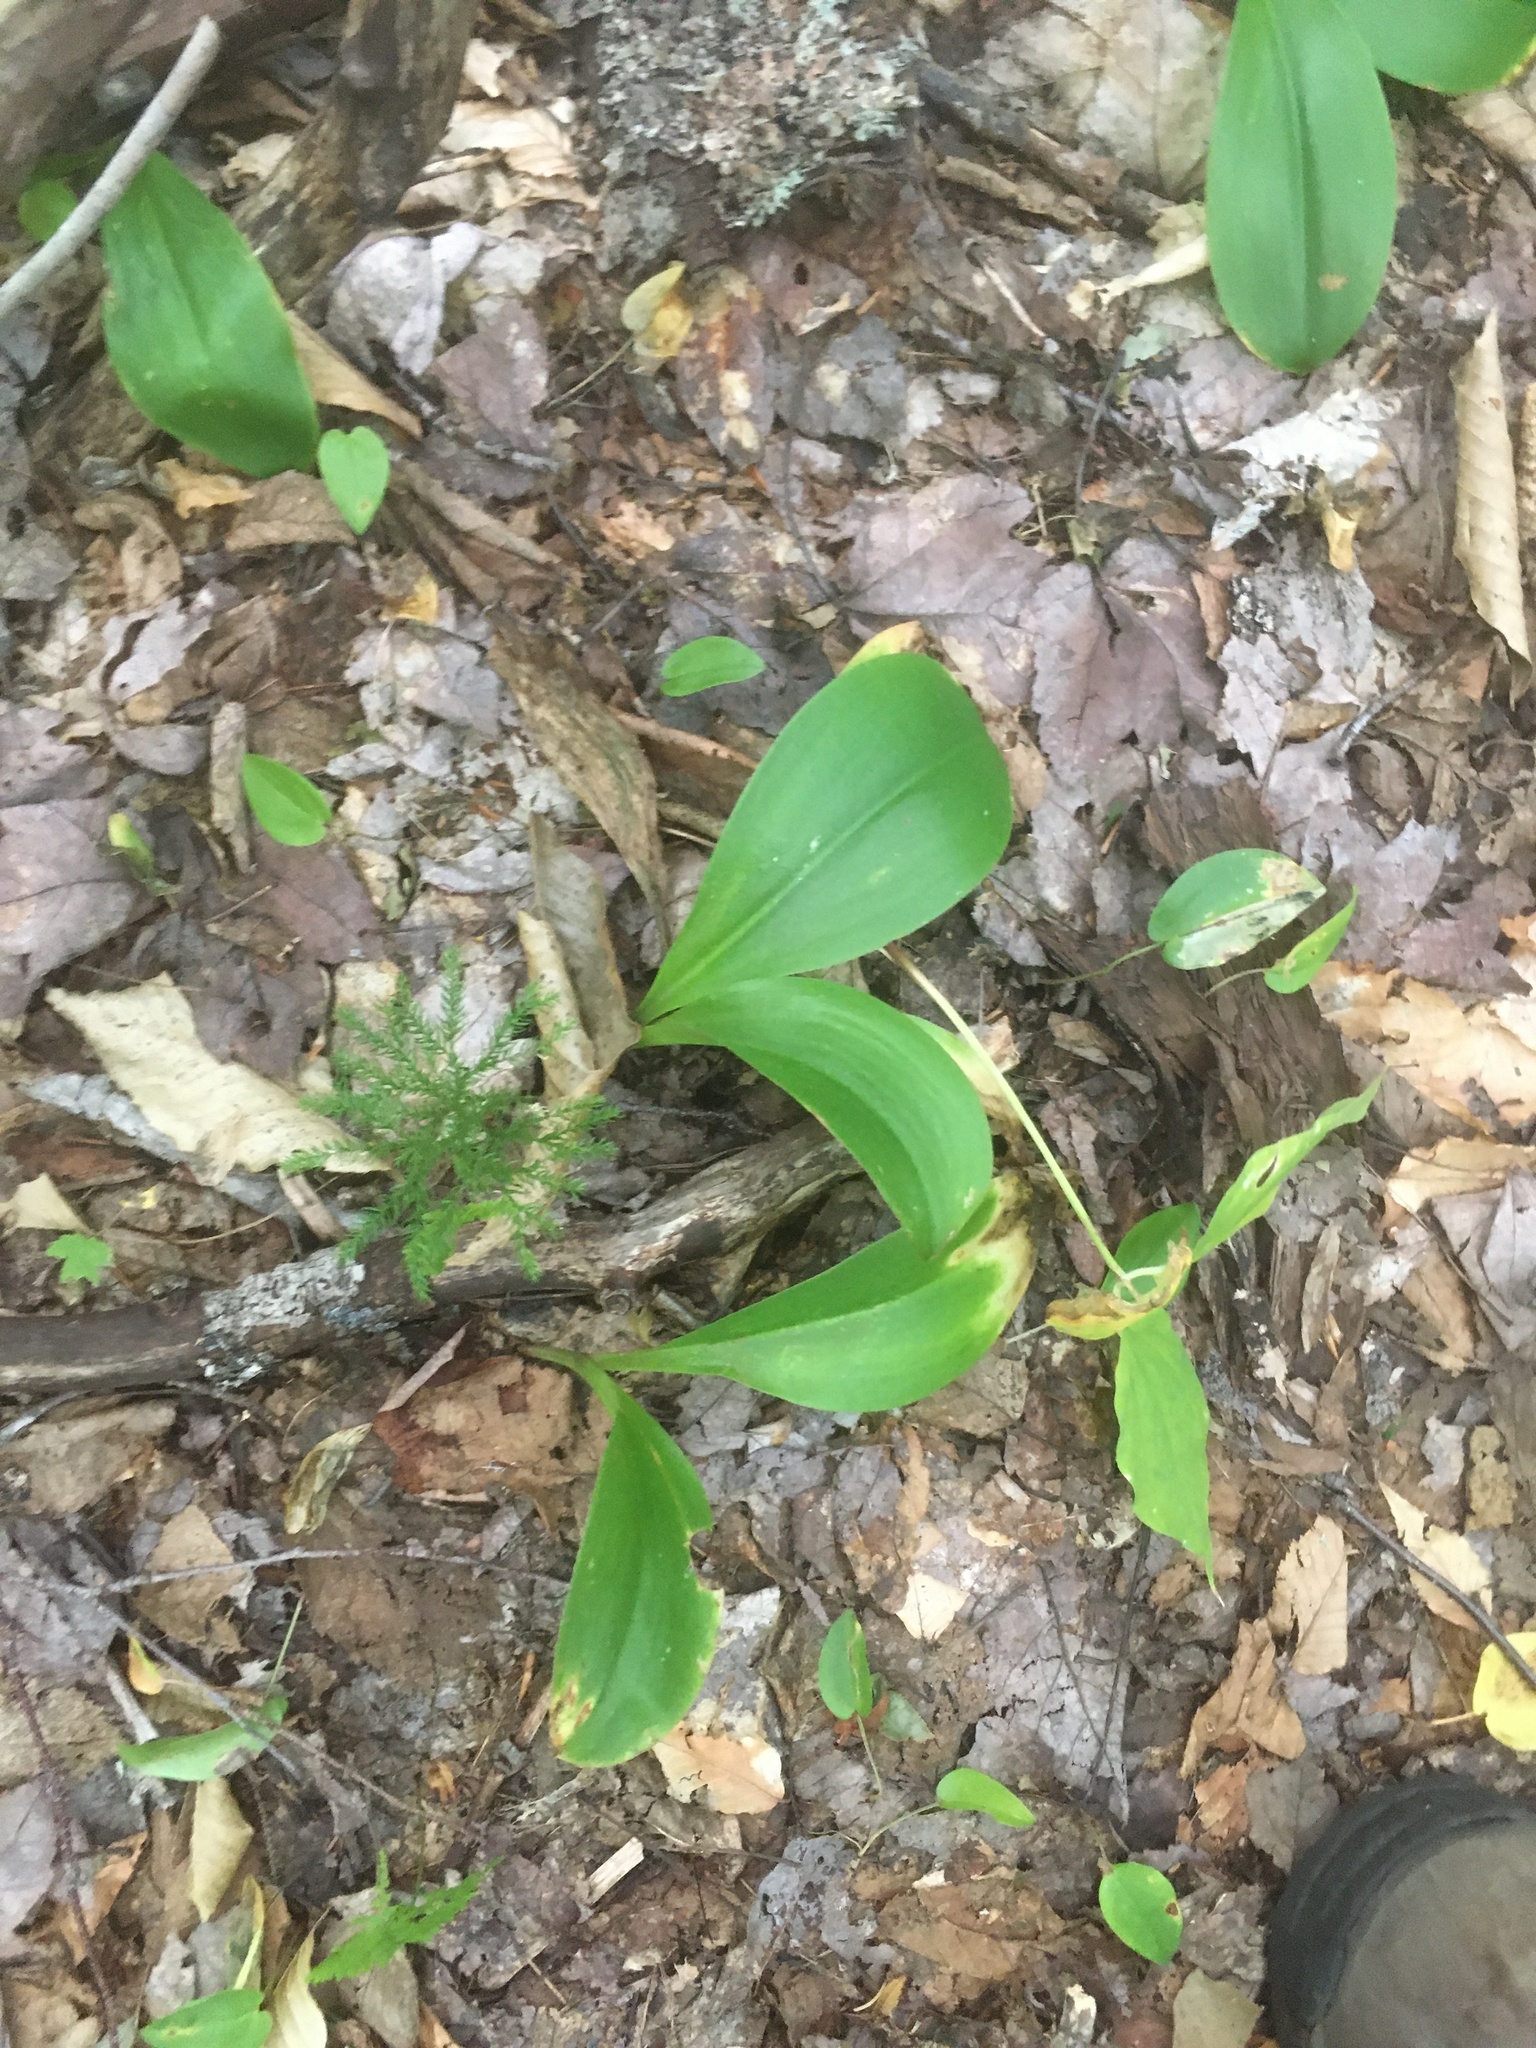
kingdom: Plantae
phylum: Tracheophyta
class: Liliopsida
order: Liliales
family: Liliaceae
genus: Clintonia
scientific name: Clintonia borealis
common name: Yellow clintonia
